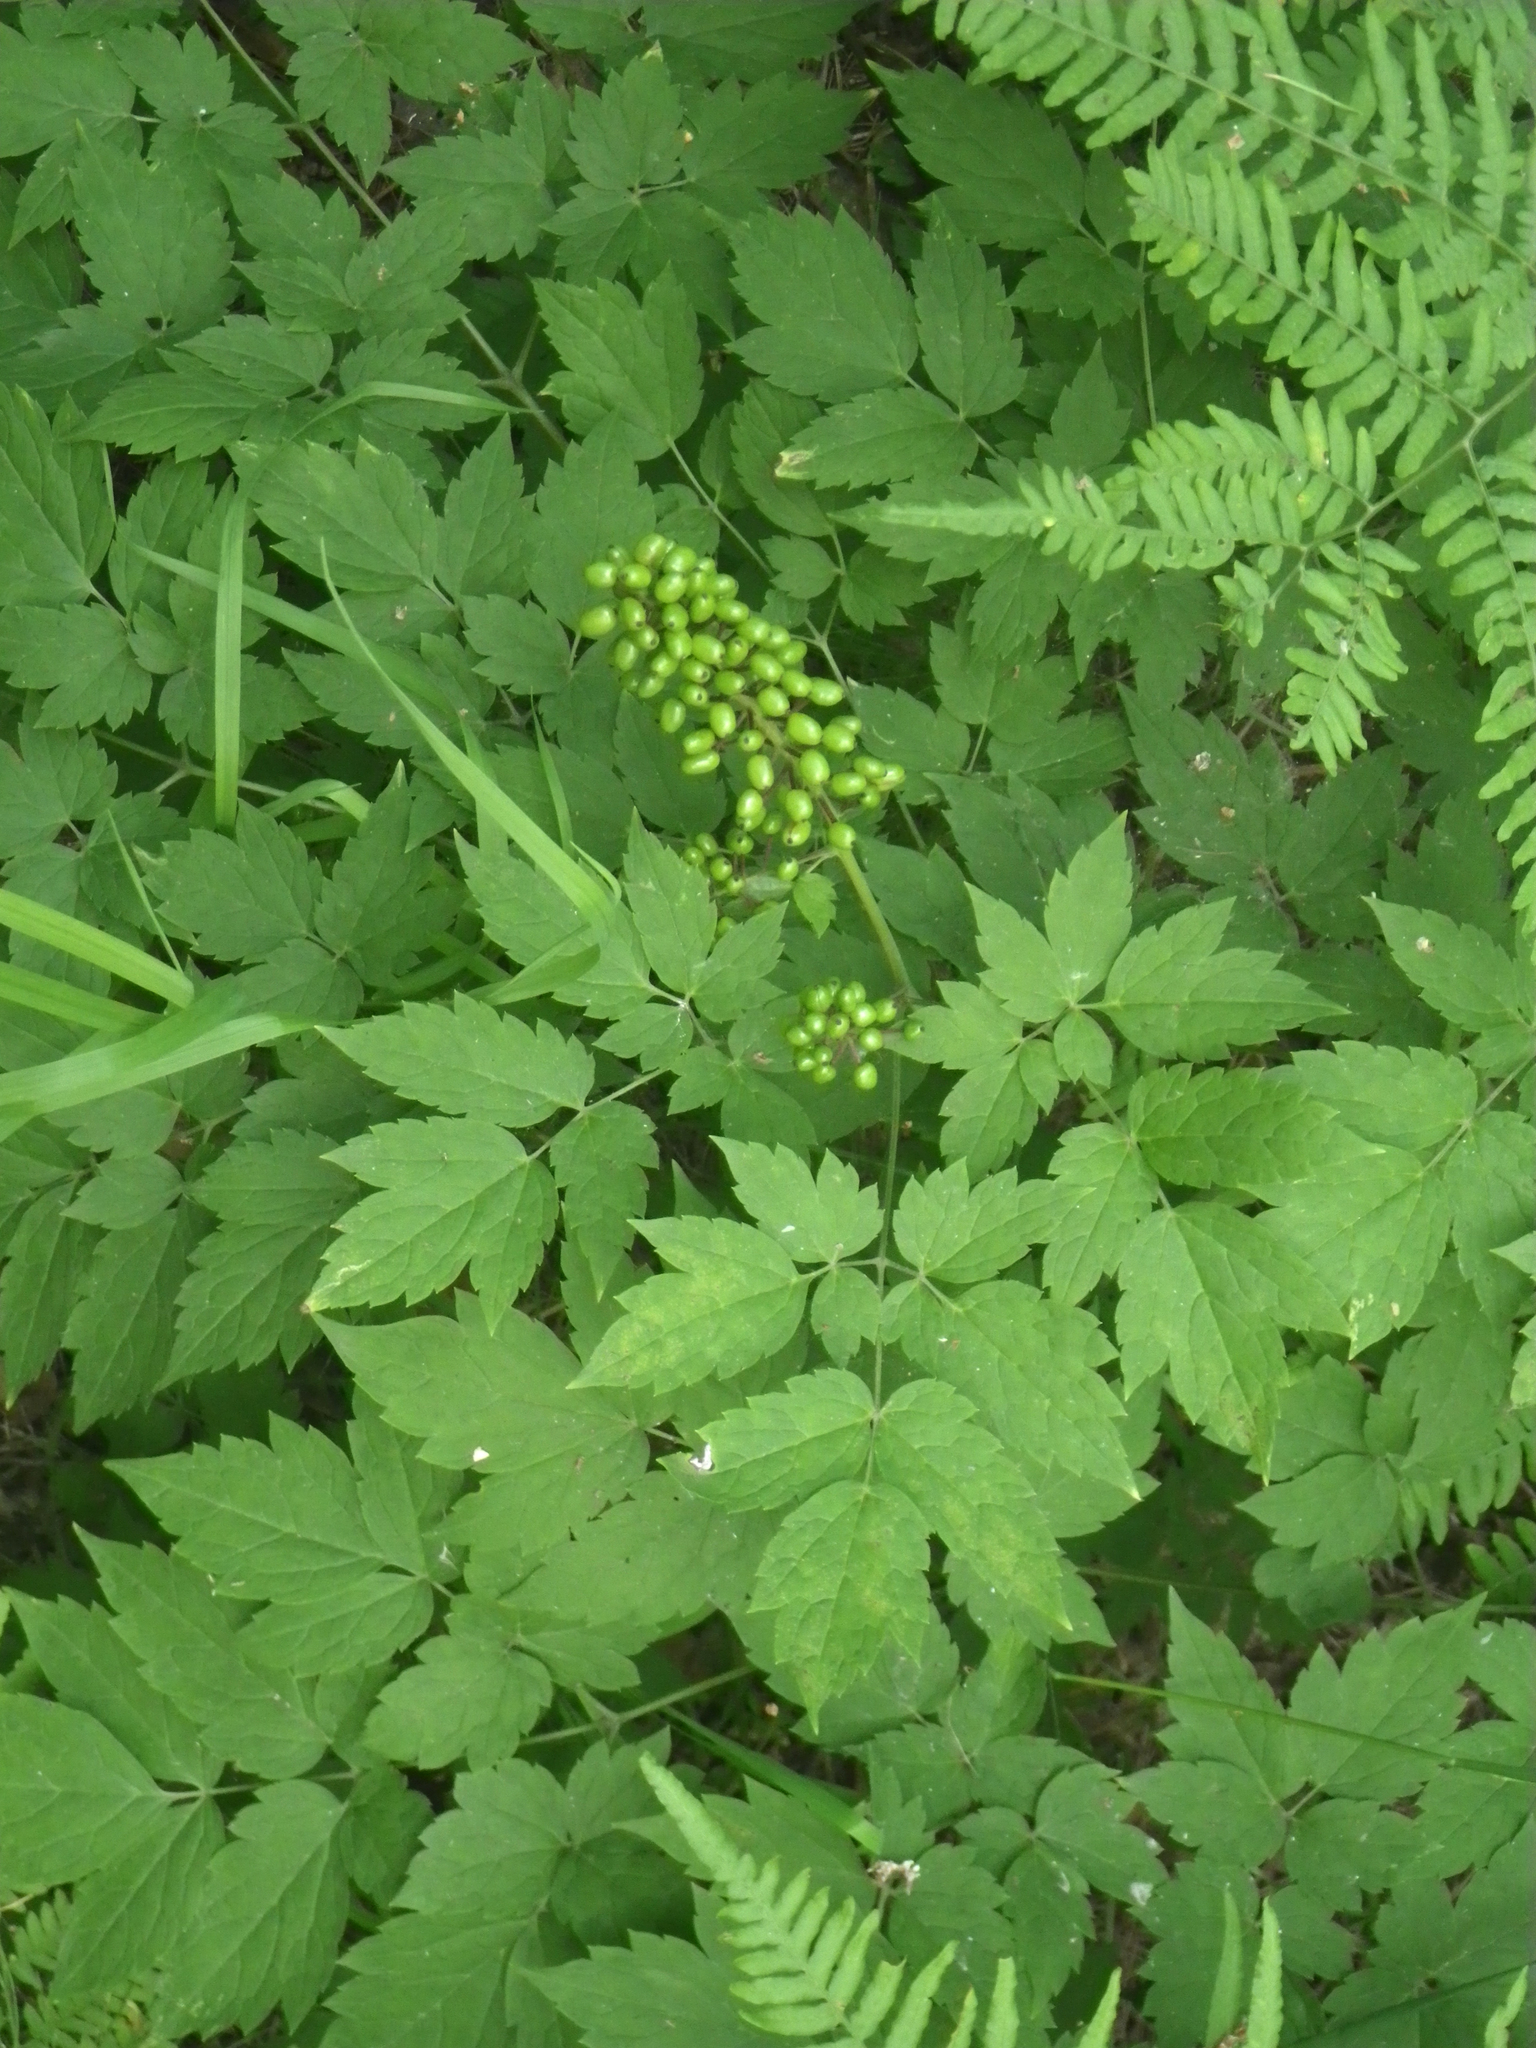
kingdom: Plantae
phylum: Tracheophyta
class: Magnoliopsida
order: Ranunculales
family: Ranunculaceae
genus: Actaea
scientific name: Actaea erythrocarpa
